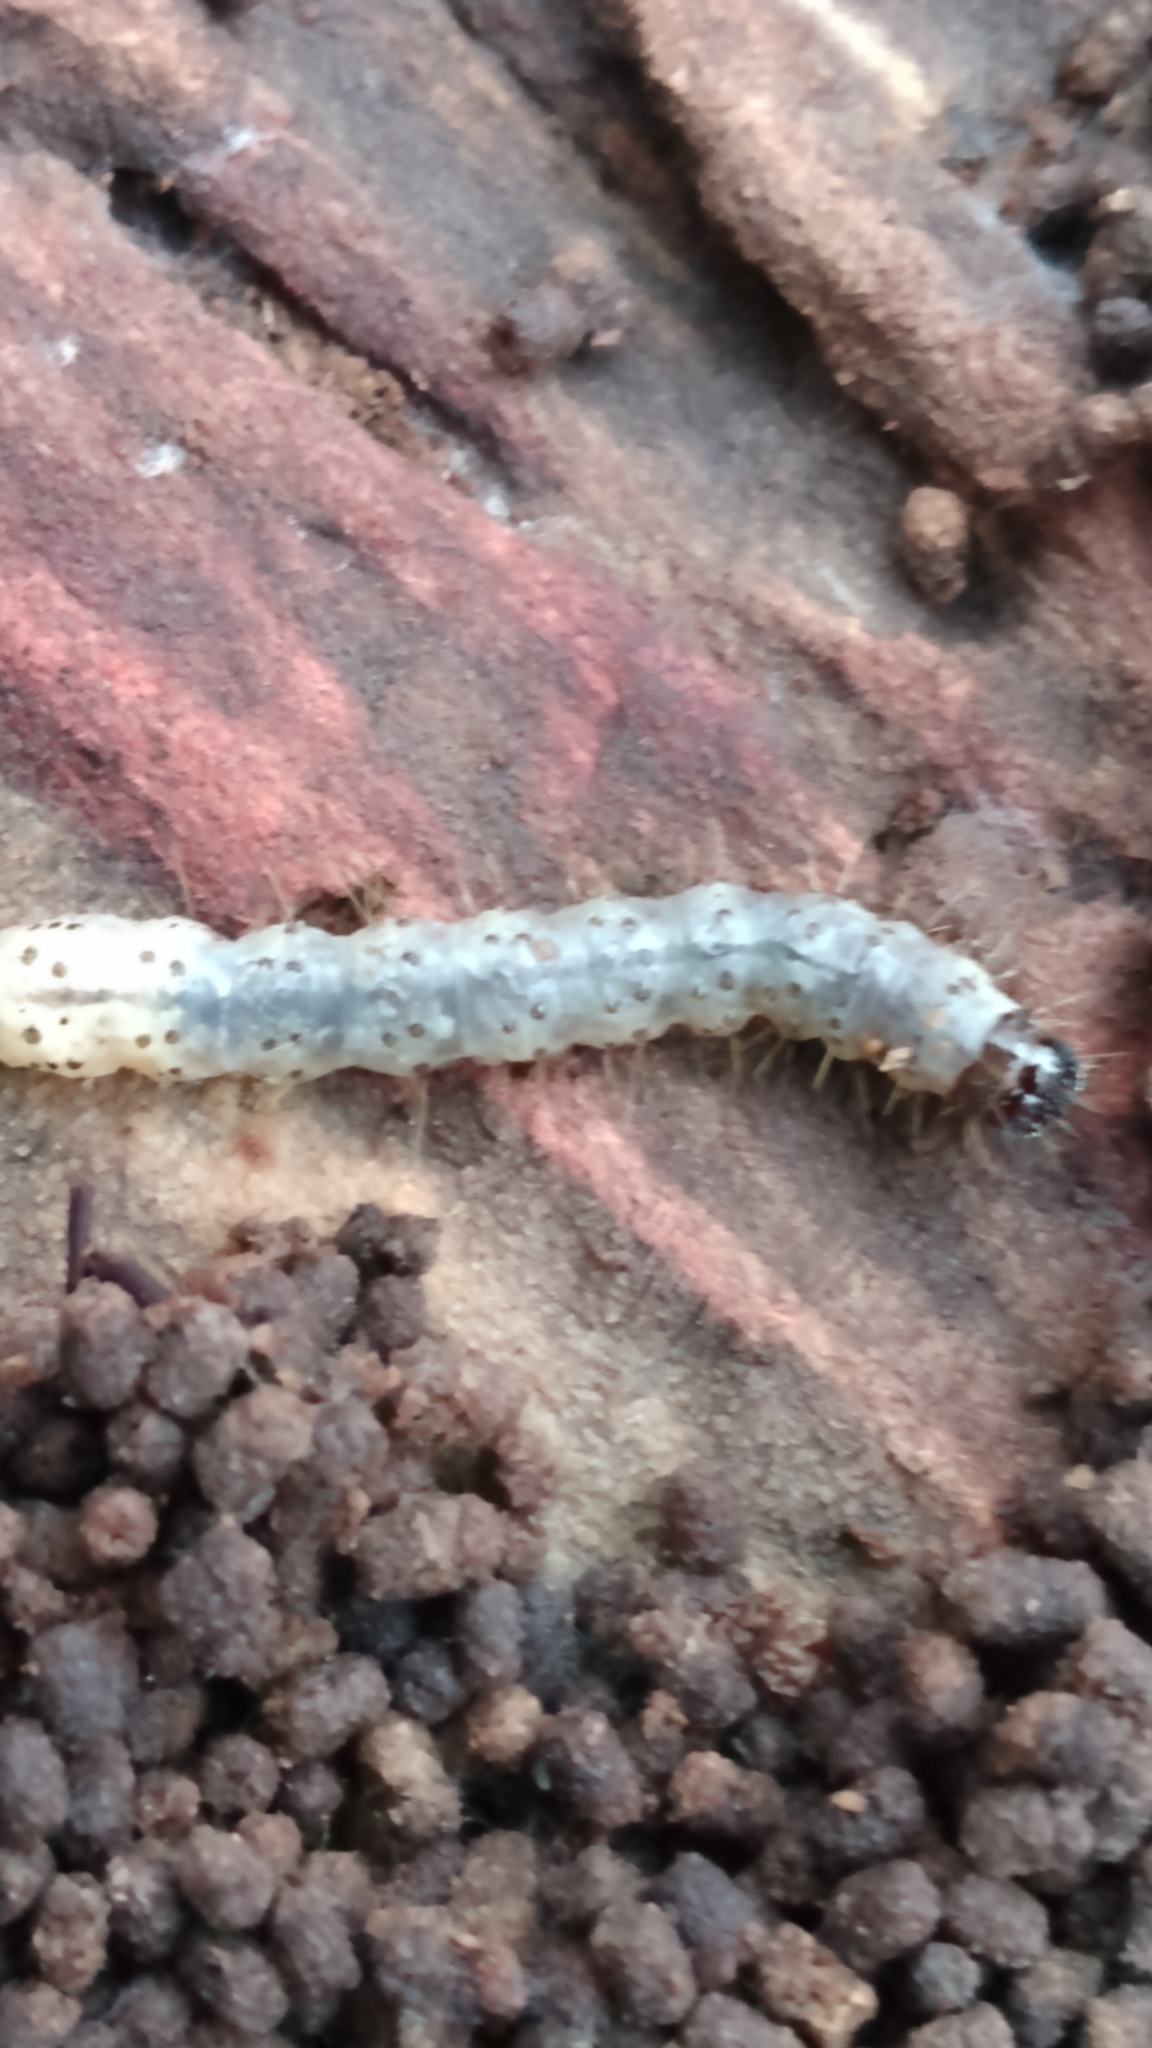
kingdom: Animalia
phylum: Arthropoda
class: Insecta
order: Lepidoptera
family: Erebidae
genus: Scolecocampa
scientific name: Scolecocampa liburna
